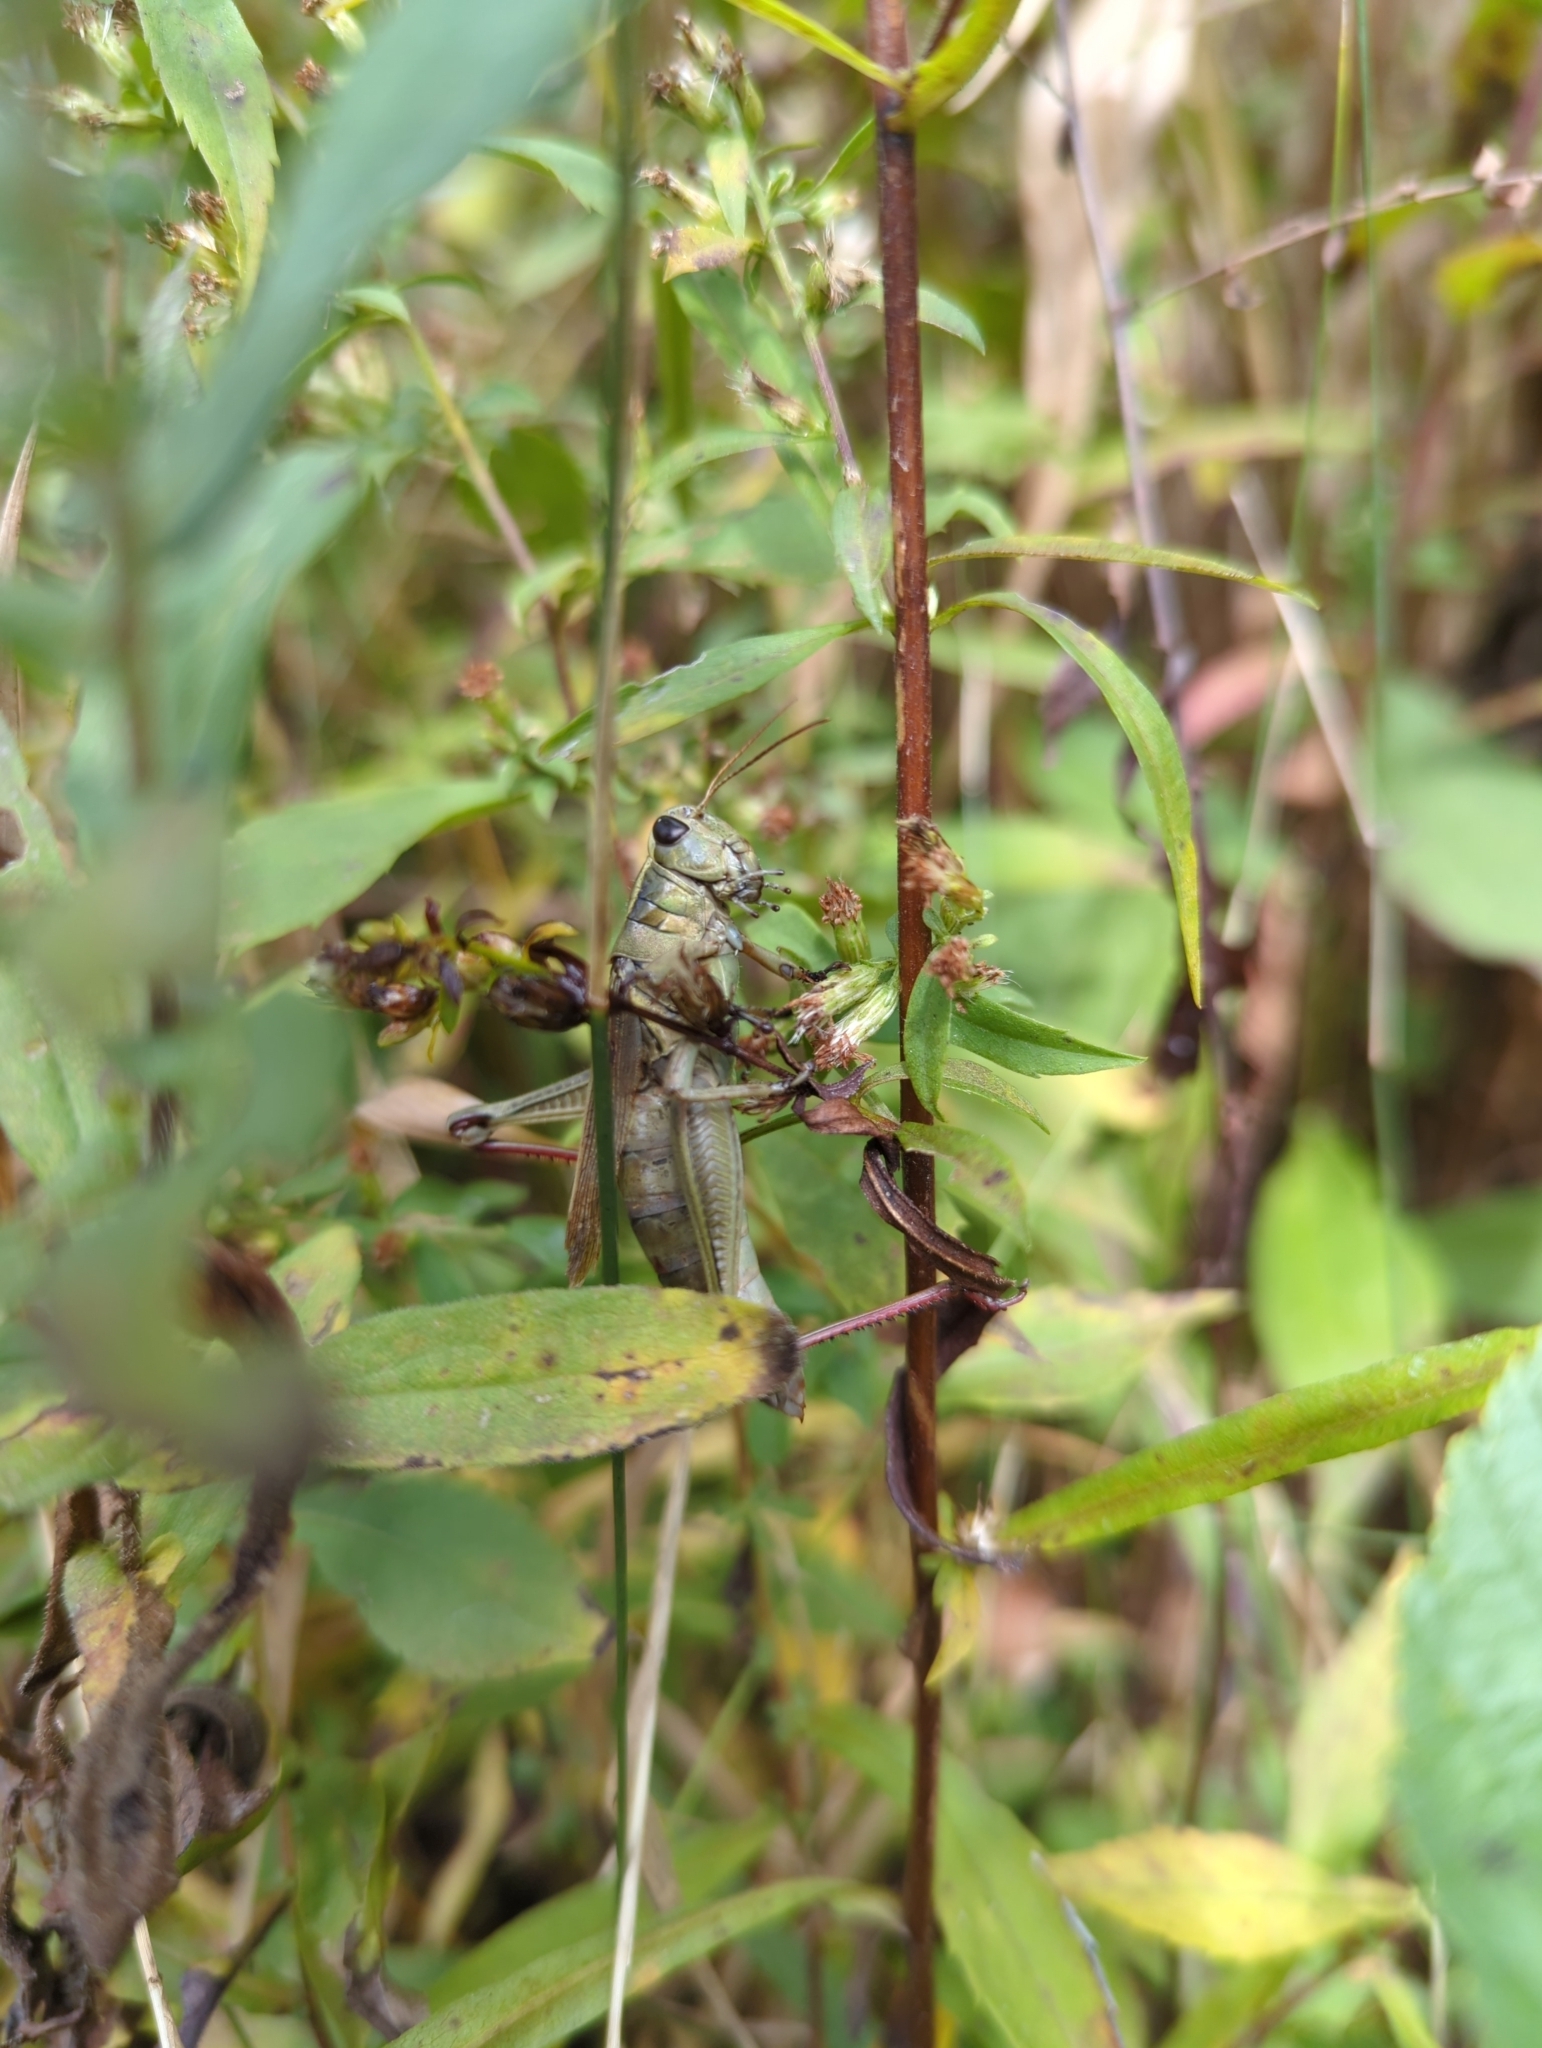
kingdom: Animalia
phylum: Arthropoda
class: Insecta
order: Orthoptera
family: Acrididae
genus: Melanoplus
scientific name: Melanoplus bivittatus
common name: Two-striped grasshopper
